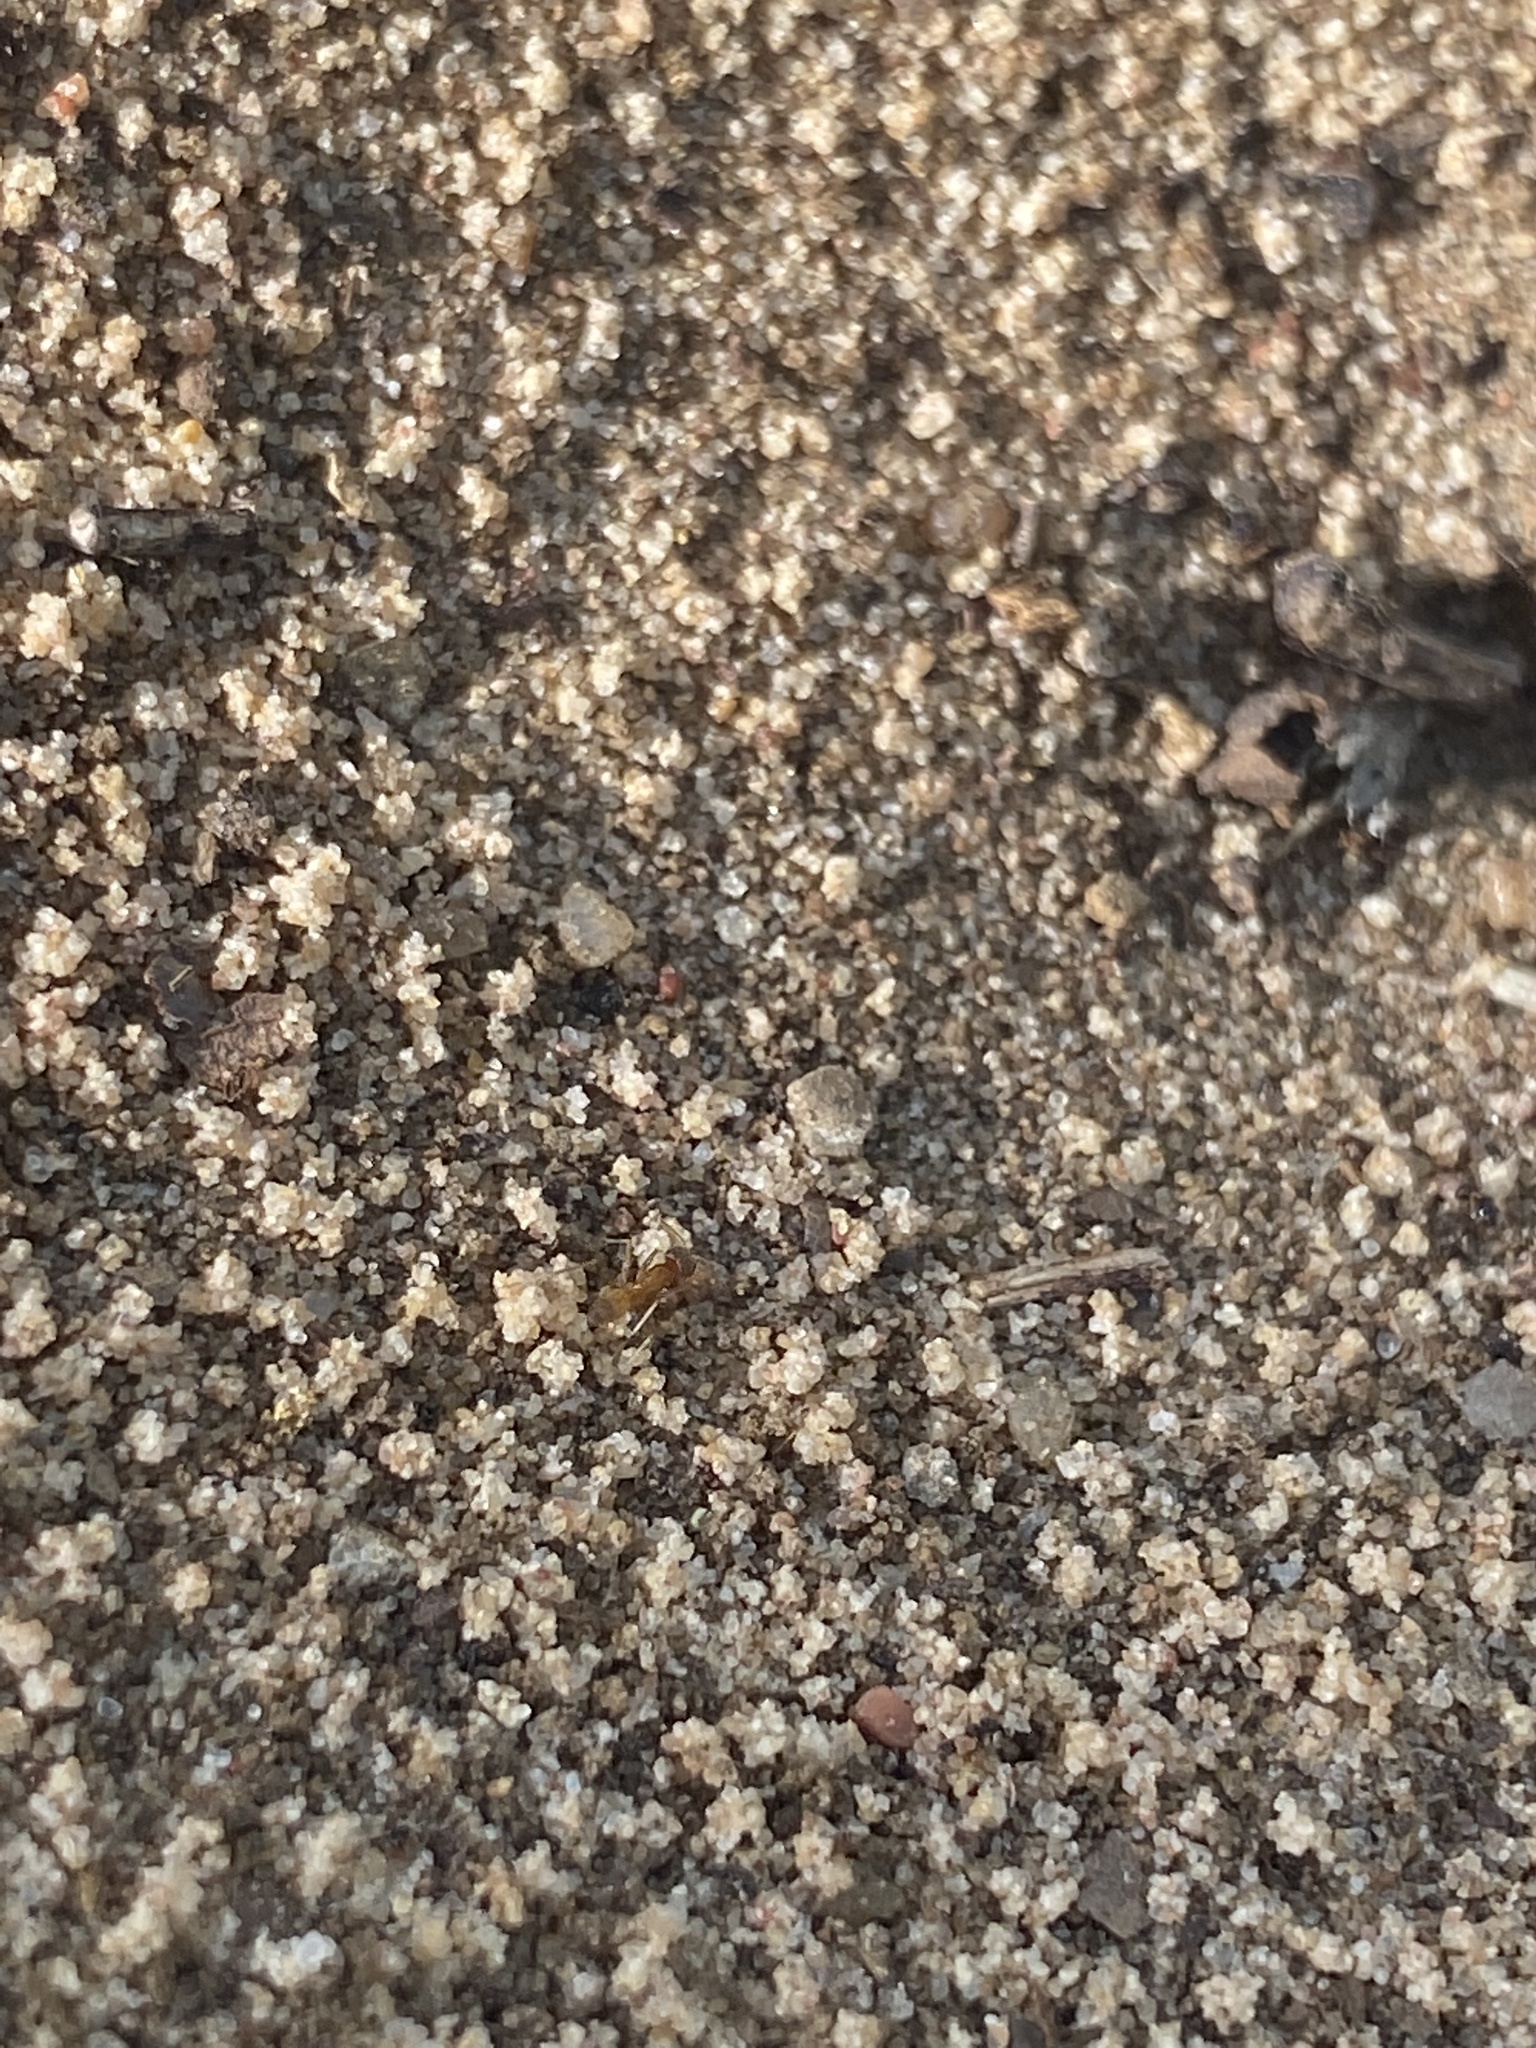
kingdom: Animalia
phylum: Arthropoda
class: Insecta
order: Hymenoptera
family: Formicidae
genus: Dorymyrmex
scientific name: Dorymyrmex flavus
